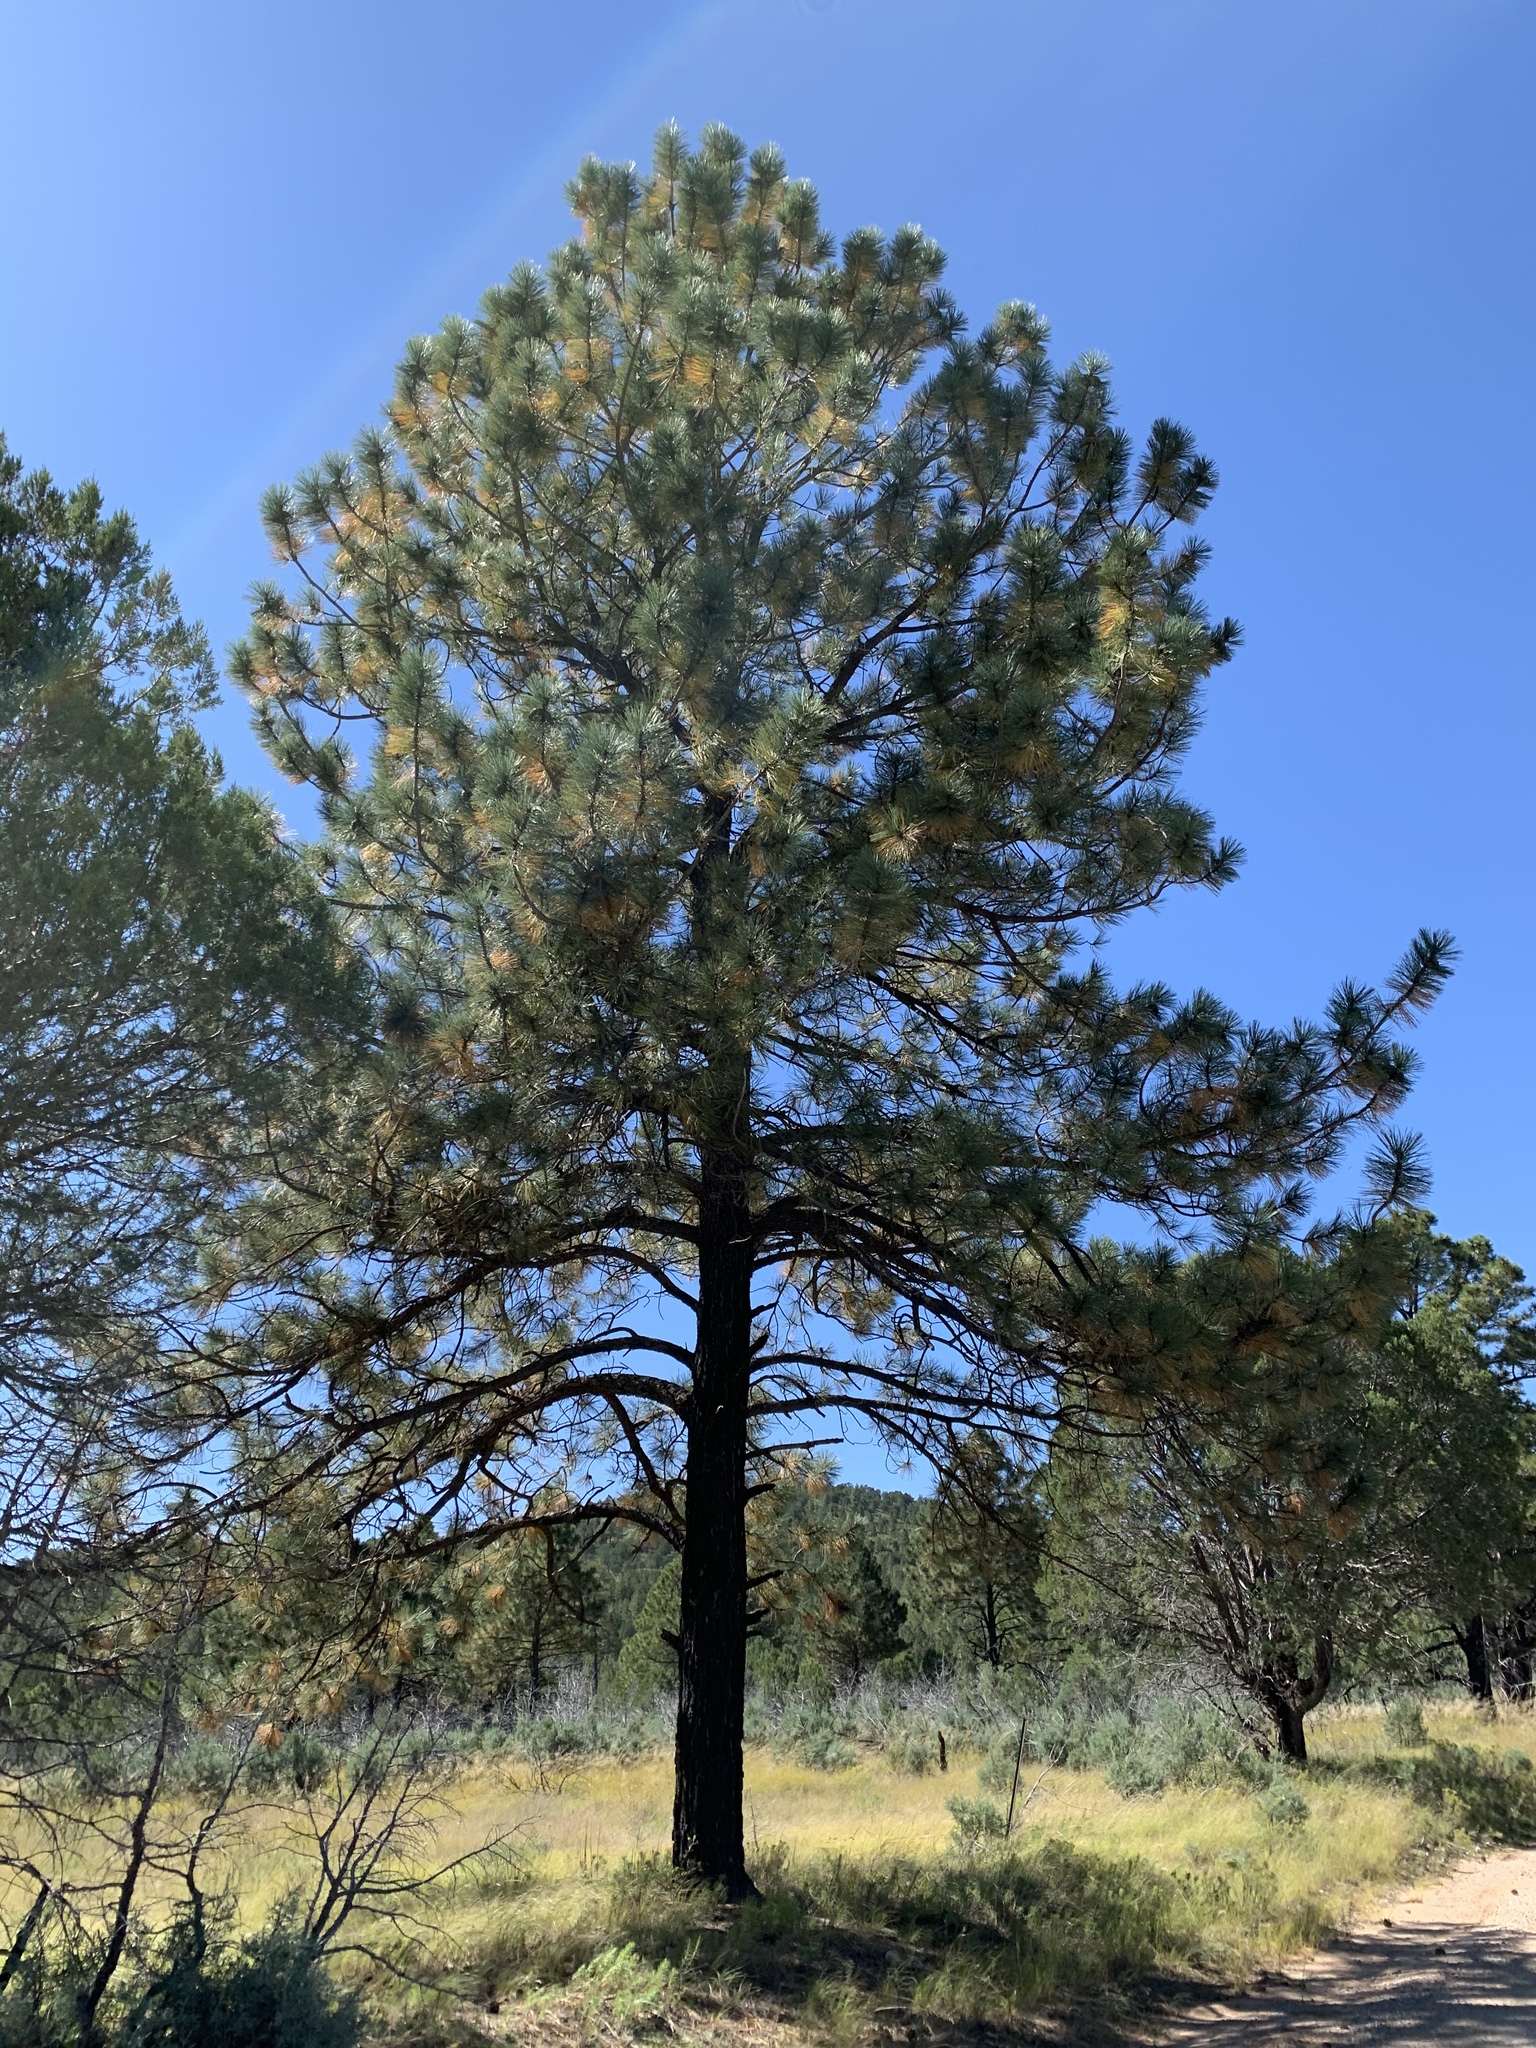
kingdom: Plantae
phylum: Tracheophyta
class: Pinopsida
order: Pinales
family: Pinaceae
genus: Pinus
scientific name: Pinus ponderosa
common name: Western yellow-pine
